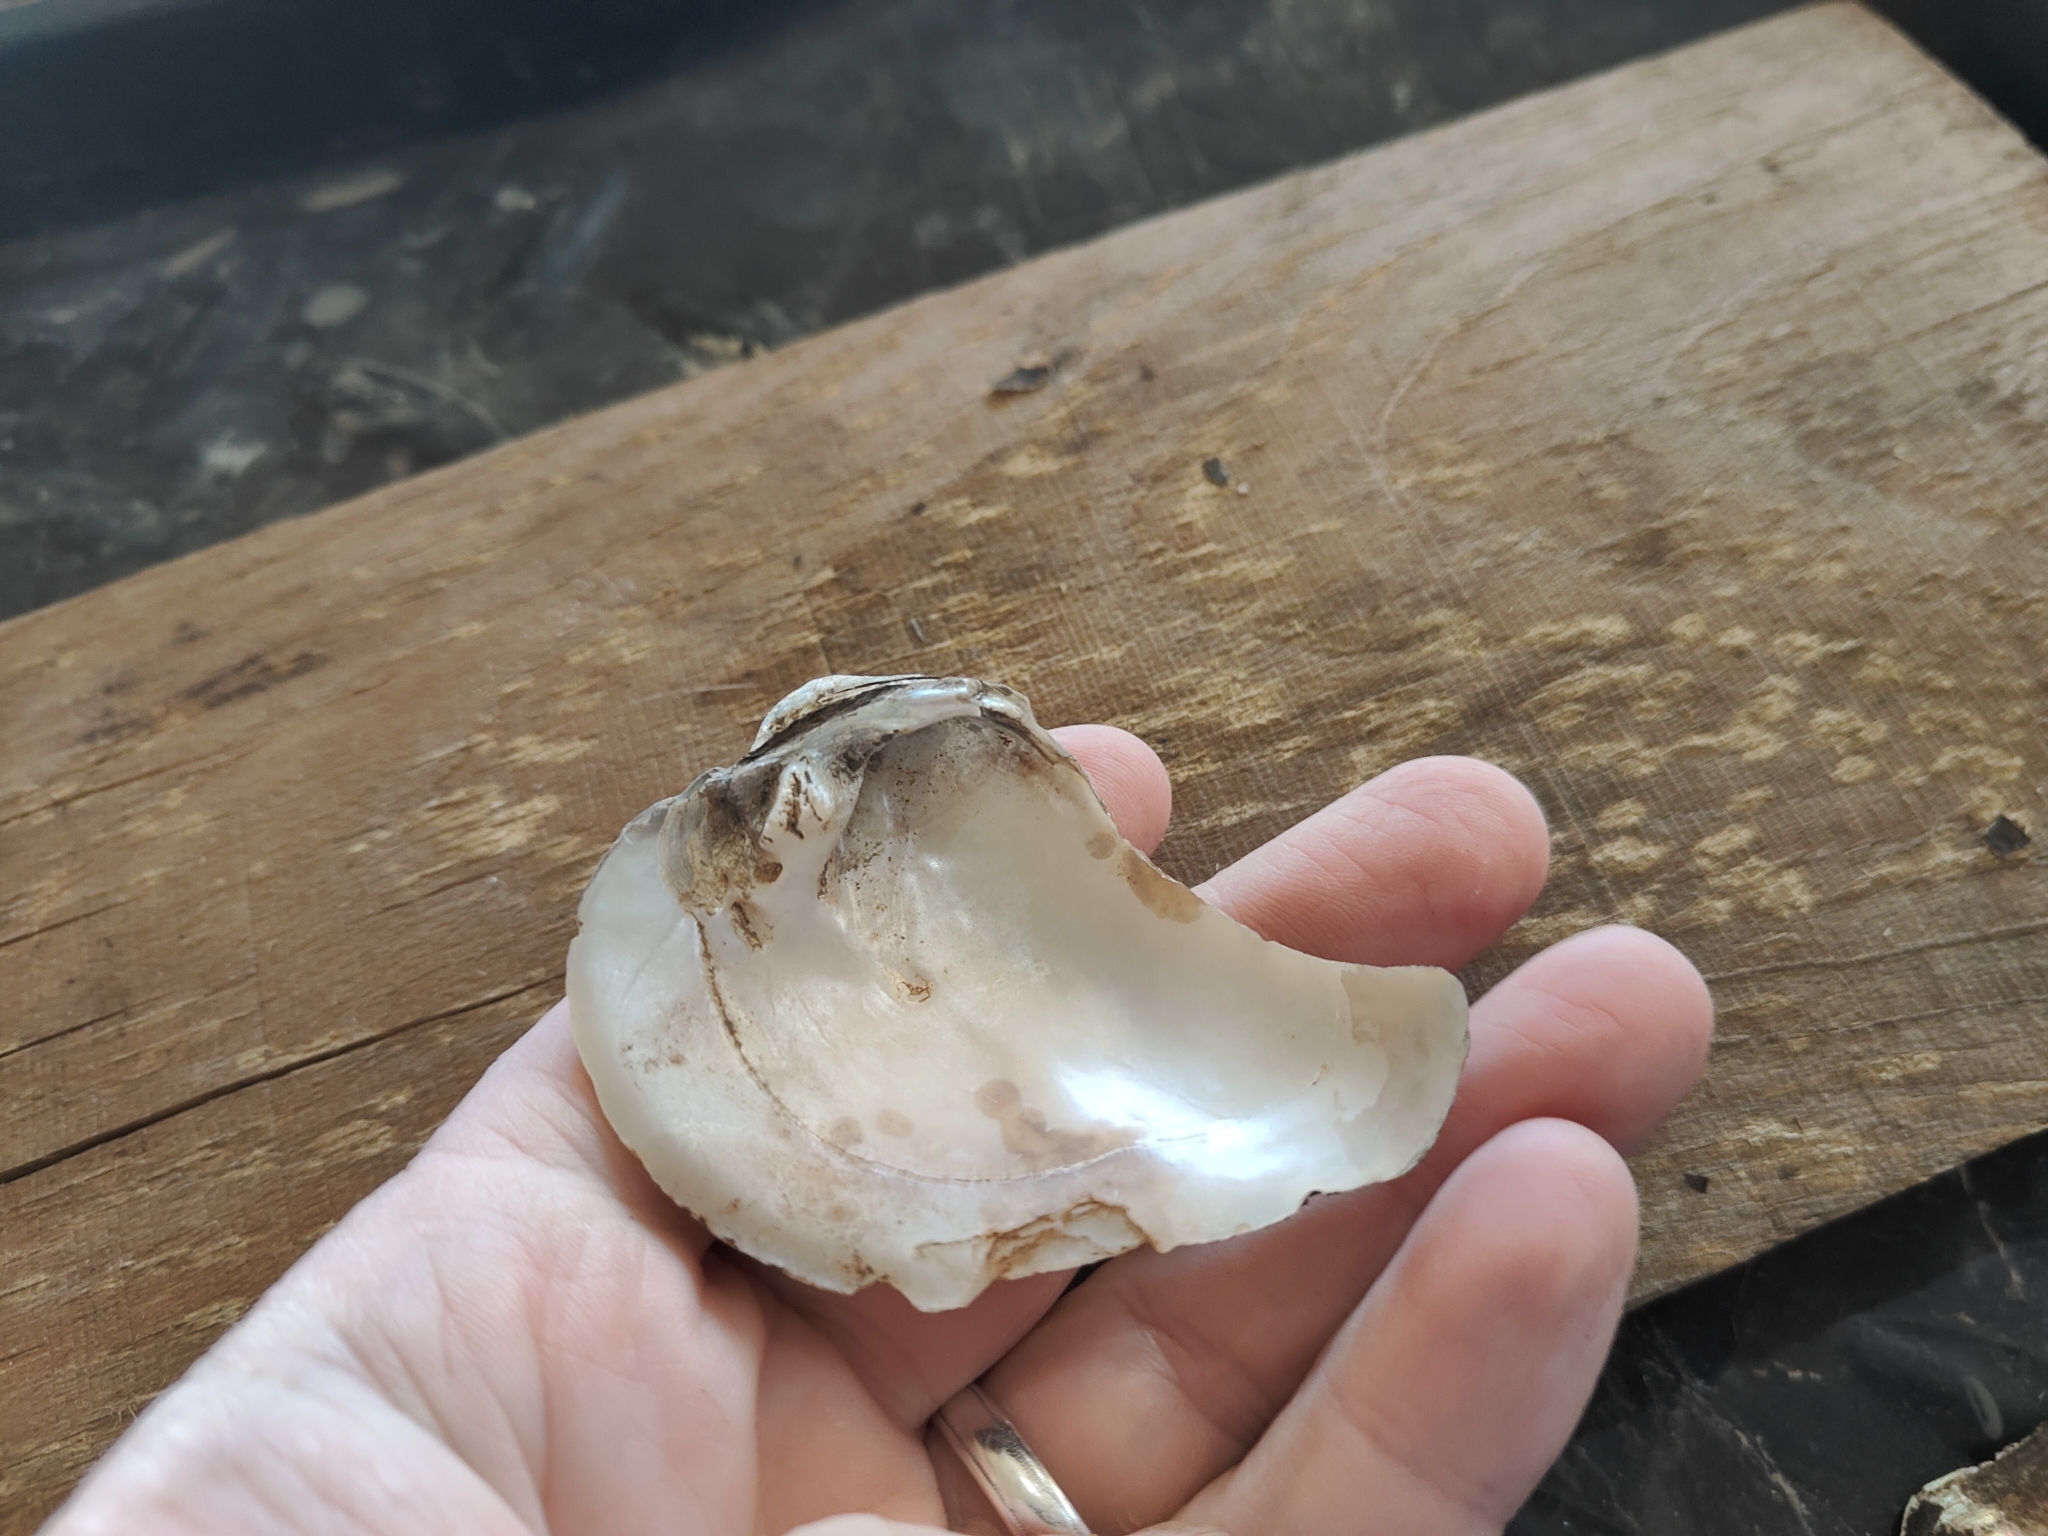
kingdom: Animalia
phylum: Mollusca
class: Bivalvia
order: Unionida
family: Unionidae
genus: Quadrula
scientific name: Quadrula quadrula
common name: Mapleleaf
